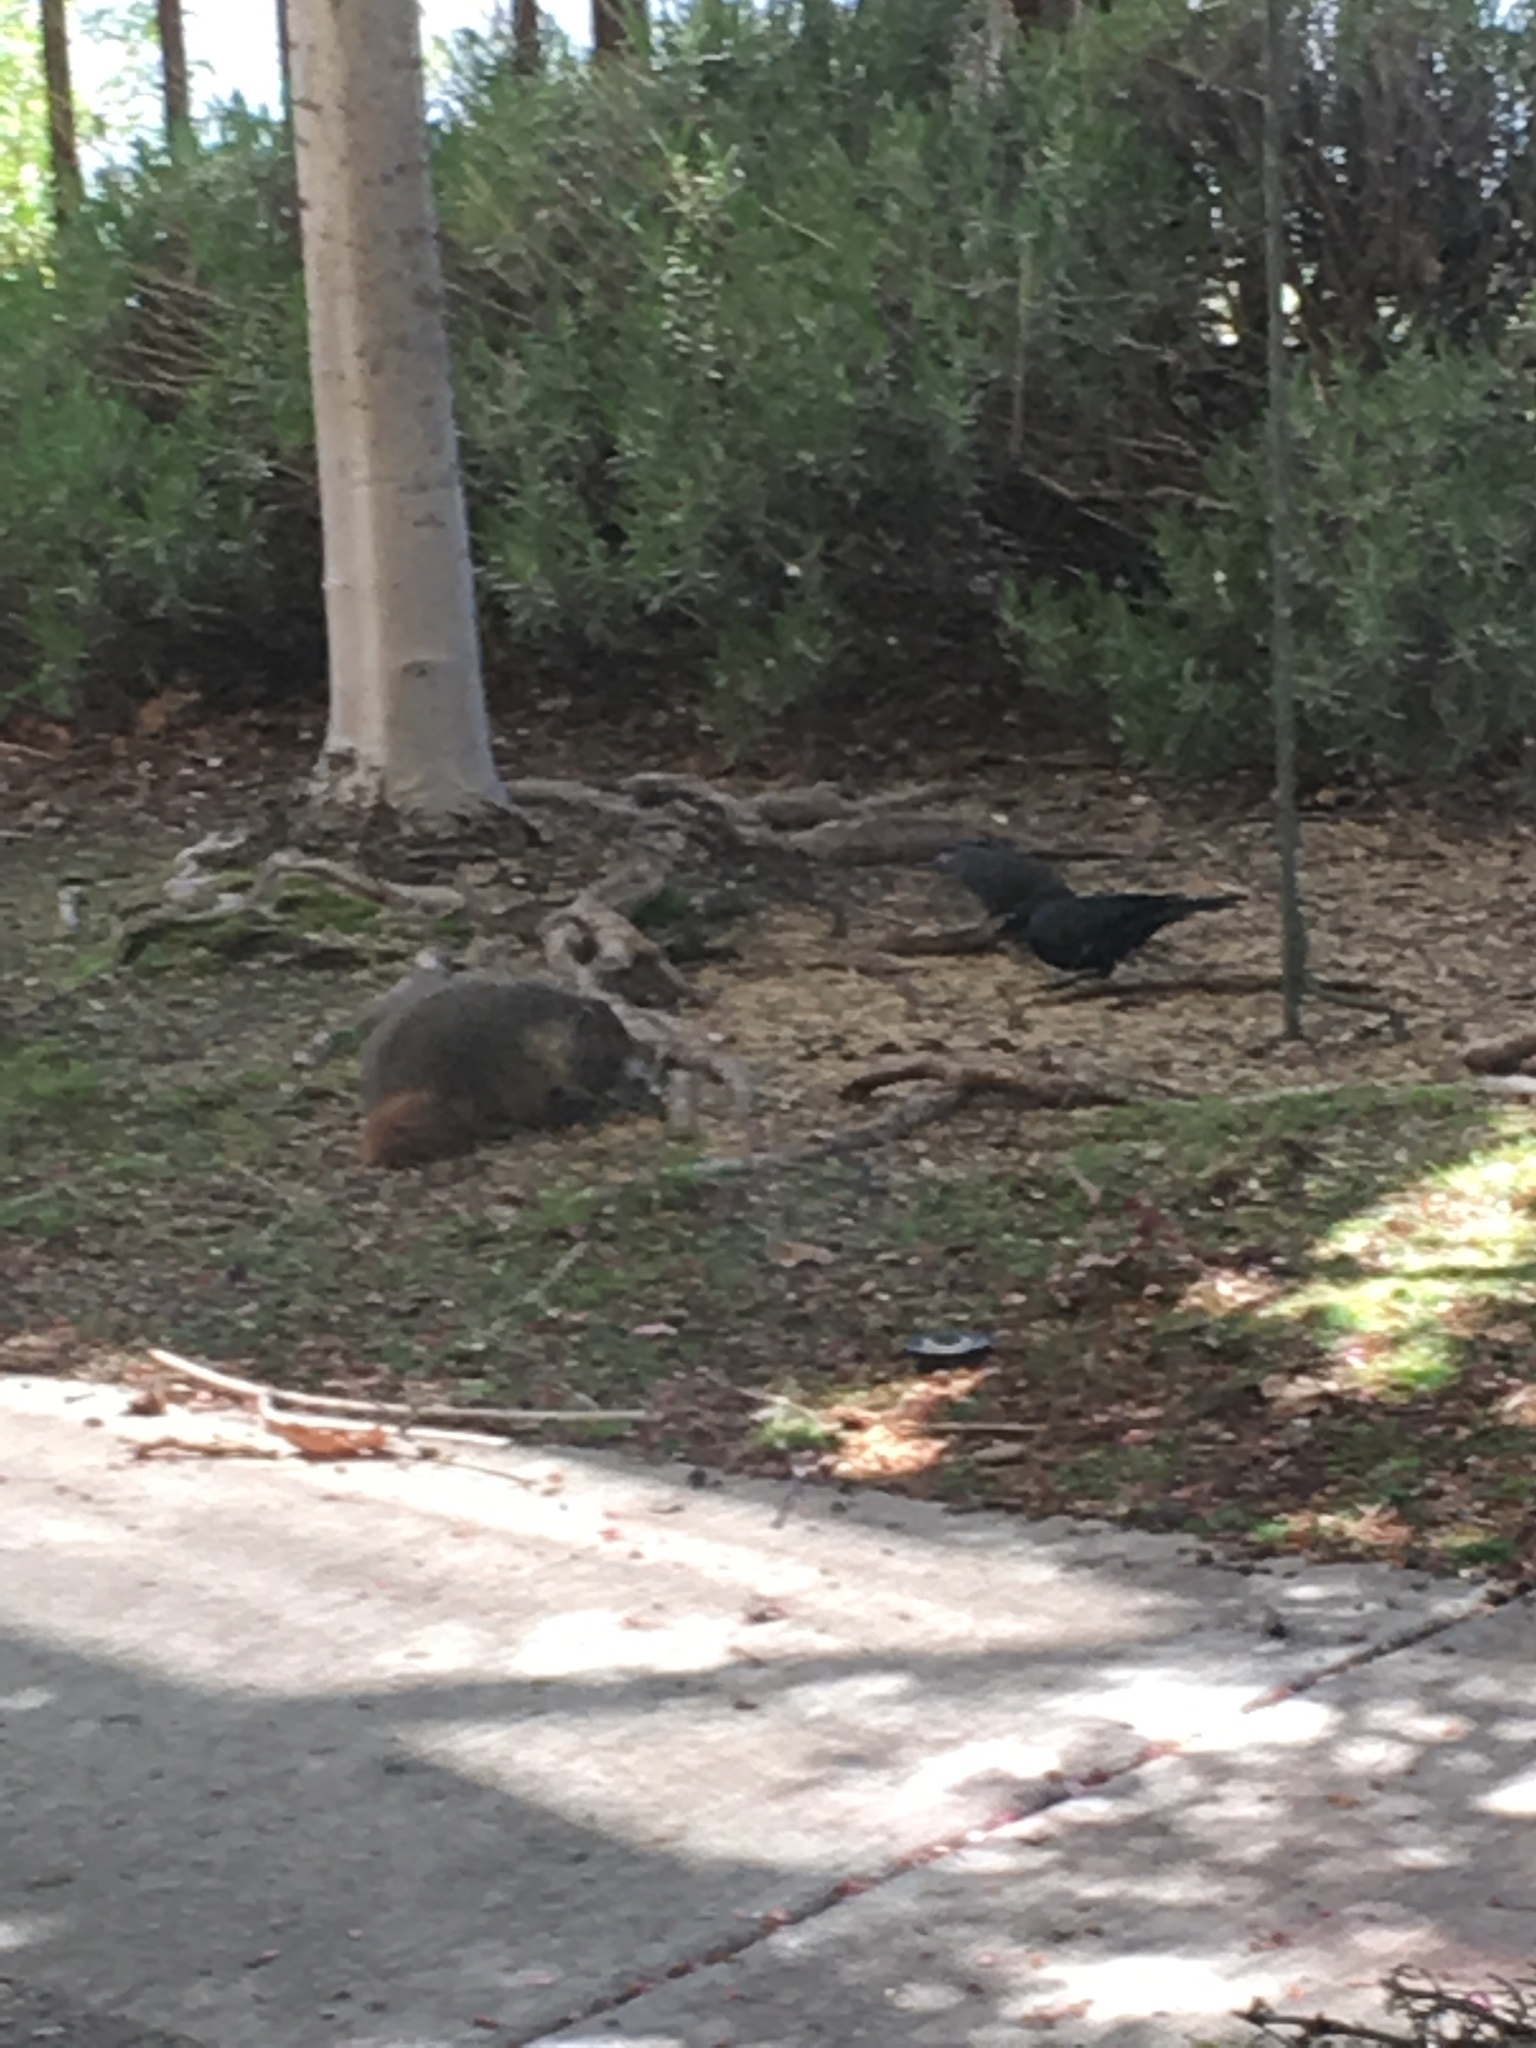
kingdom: Animalia
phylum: Chordata
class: Mammalia
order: Rodentia
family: Sciuridae
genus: Marmota
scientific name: Marmota flaviventris
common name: Yellow-bellied marmot
